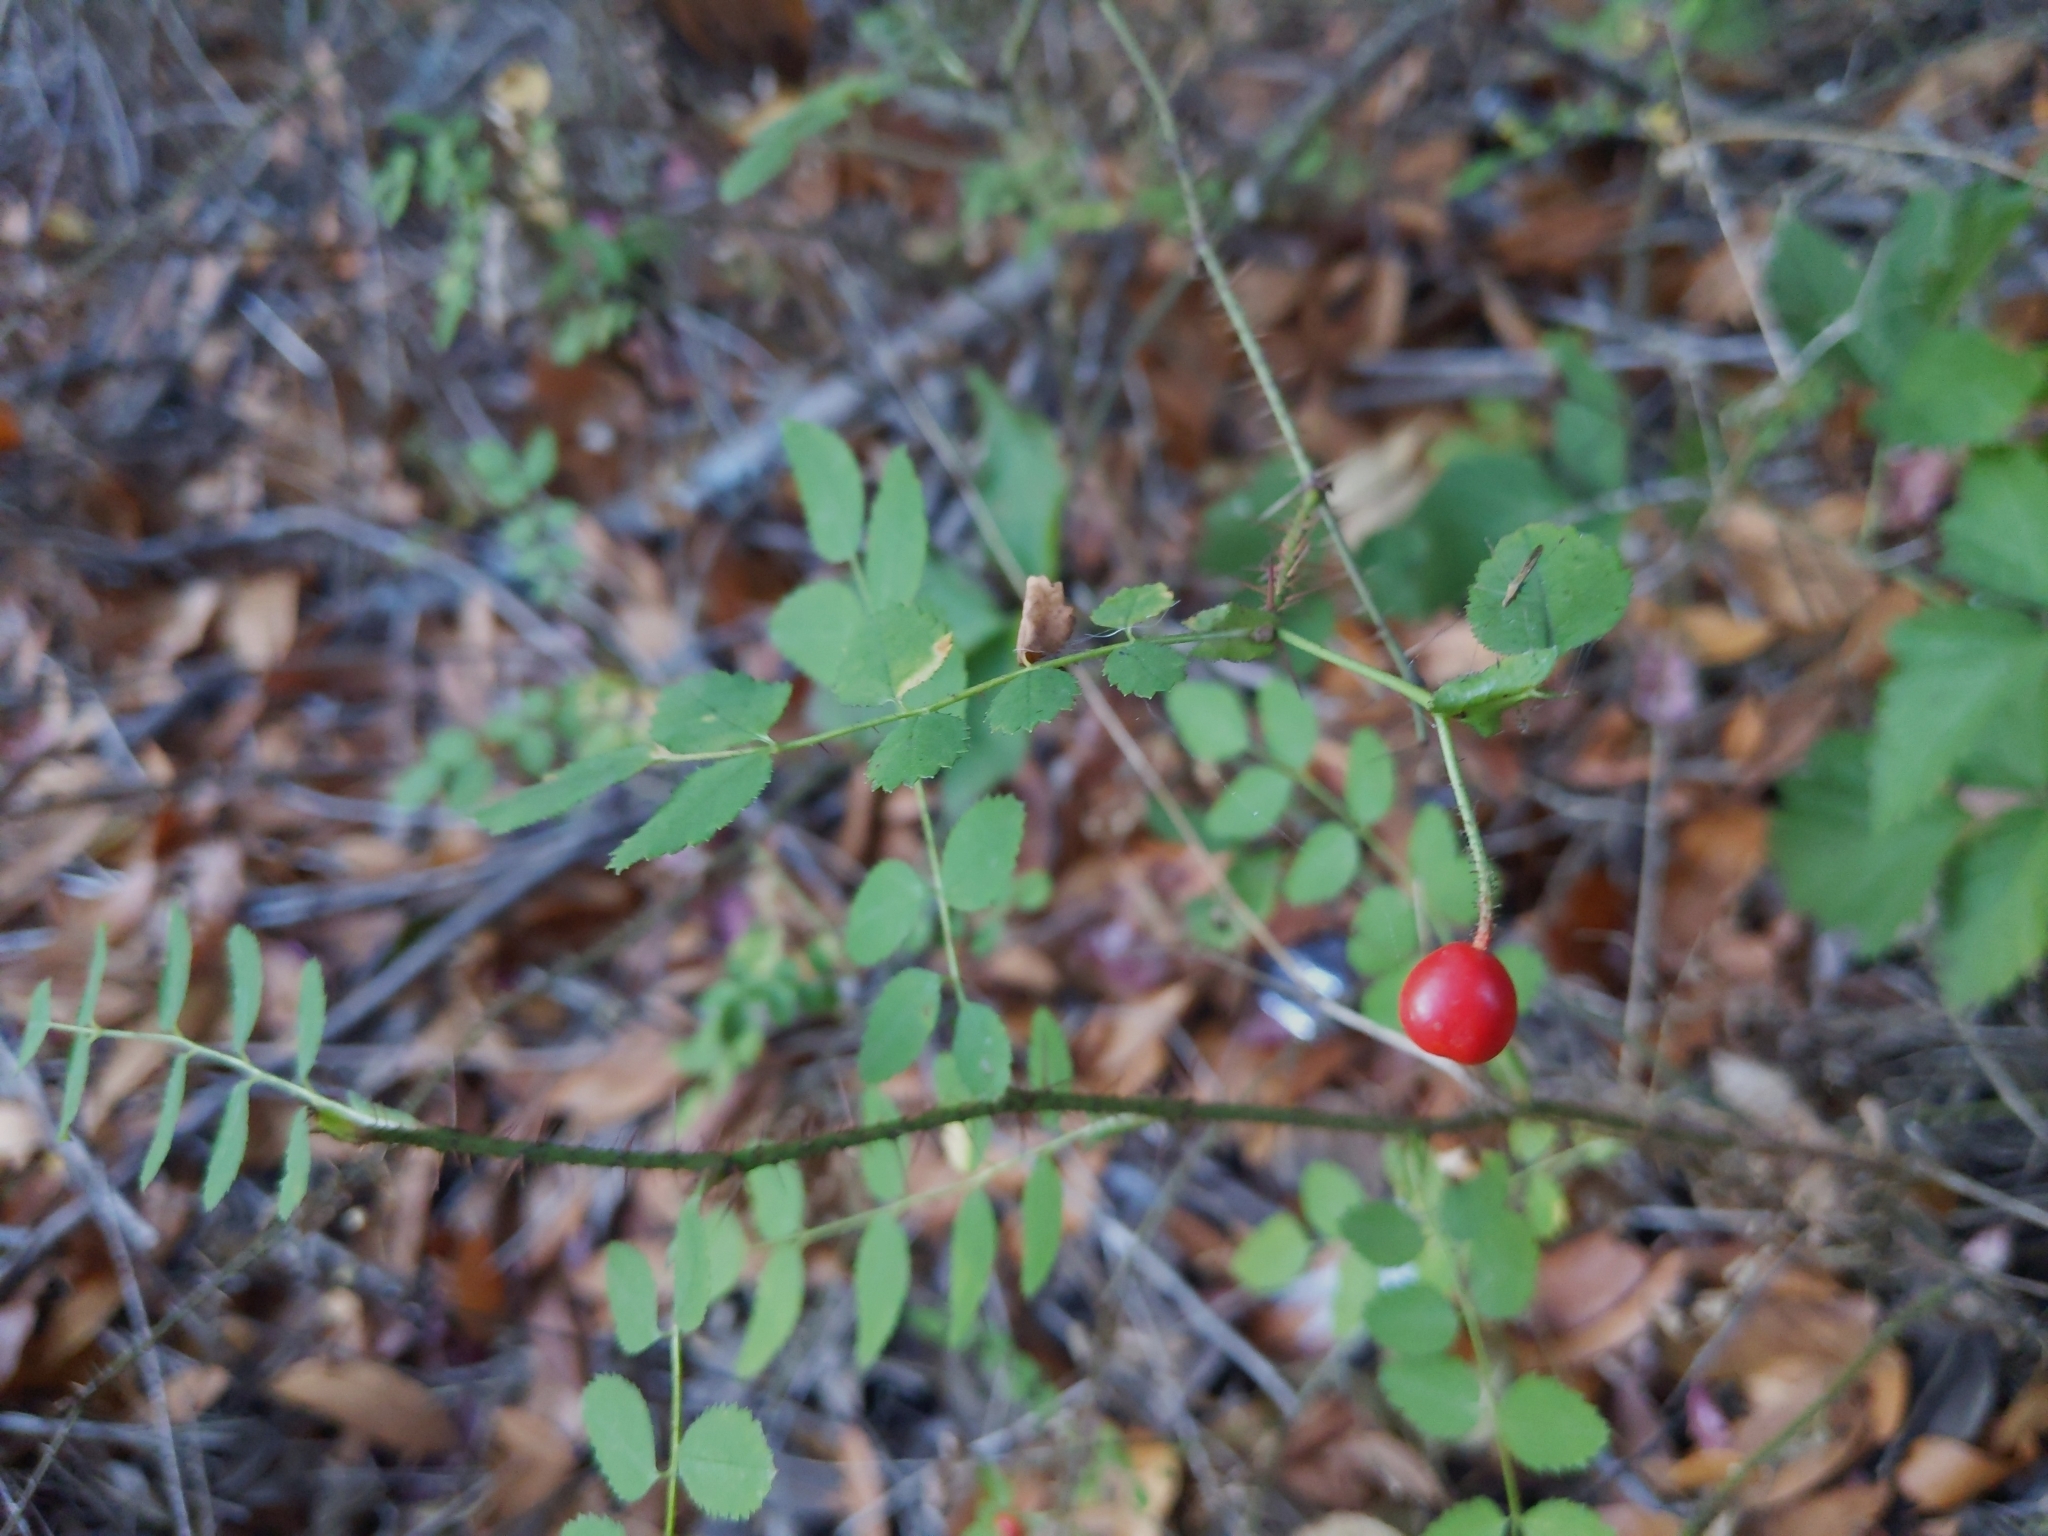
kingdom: Plantae
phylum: Tracheophyta
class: Magnoliopsida
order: Rosales
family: Rosaceae
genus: Rosa
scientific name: Rosa gymnocarpa
